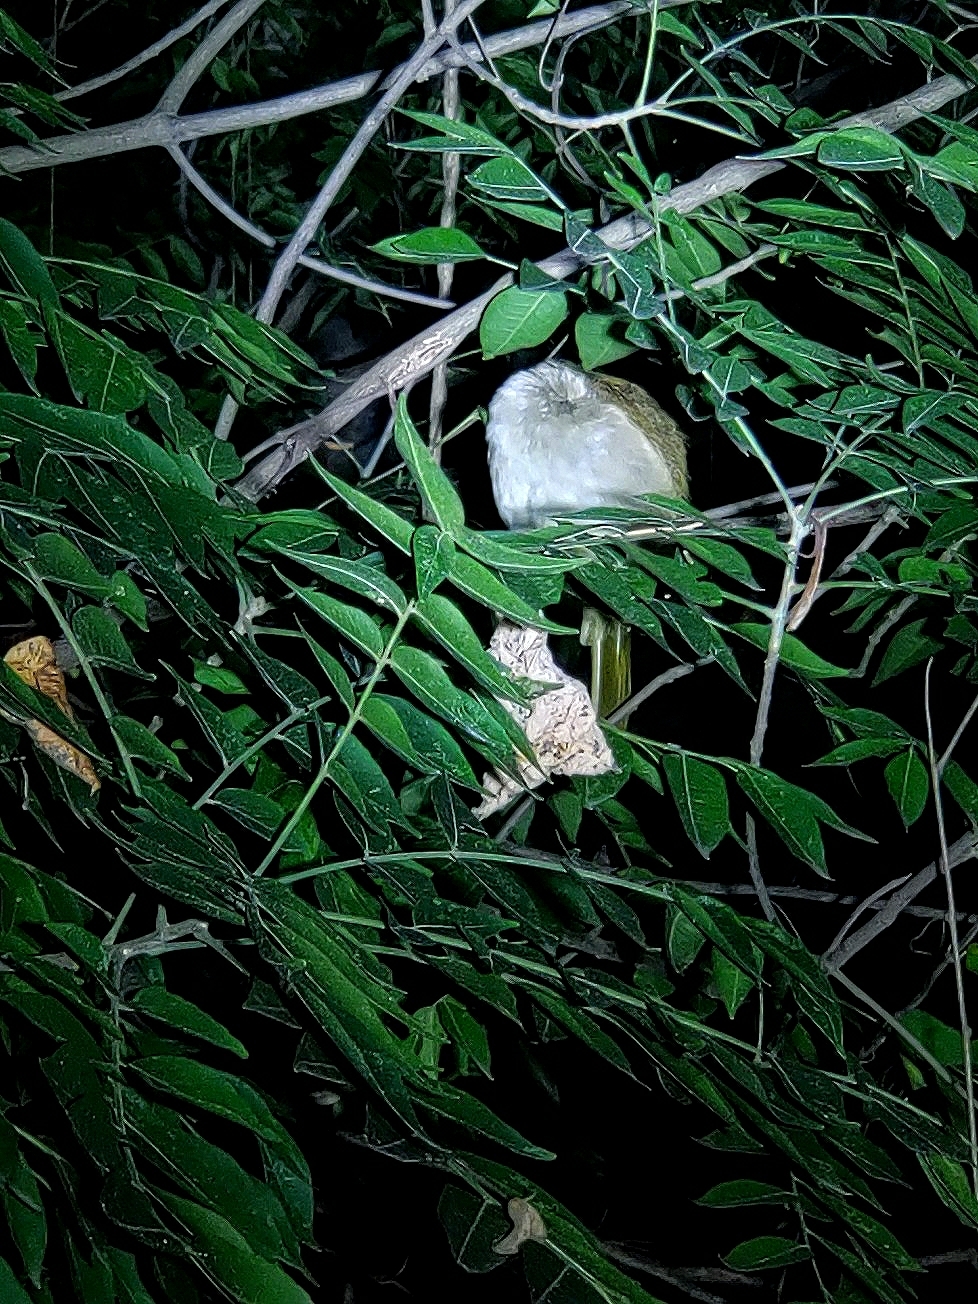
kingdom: Animalia
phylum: Chordata
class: Aves
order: Passeriformes
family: Pycnonotidae
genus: Pycnonotus
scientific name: Pycnonotus luteolus
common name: White-browed bulbul
